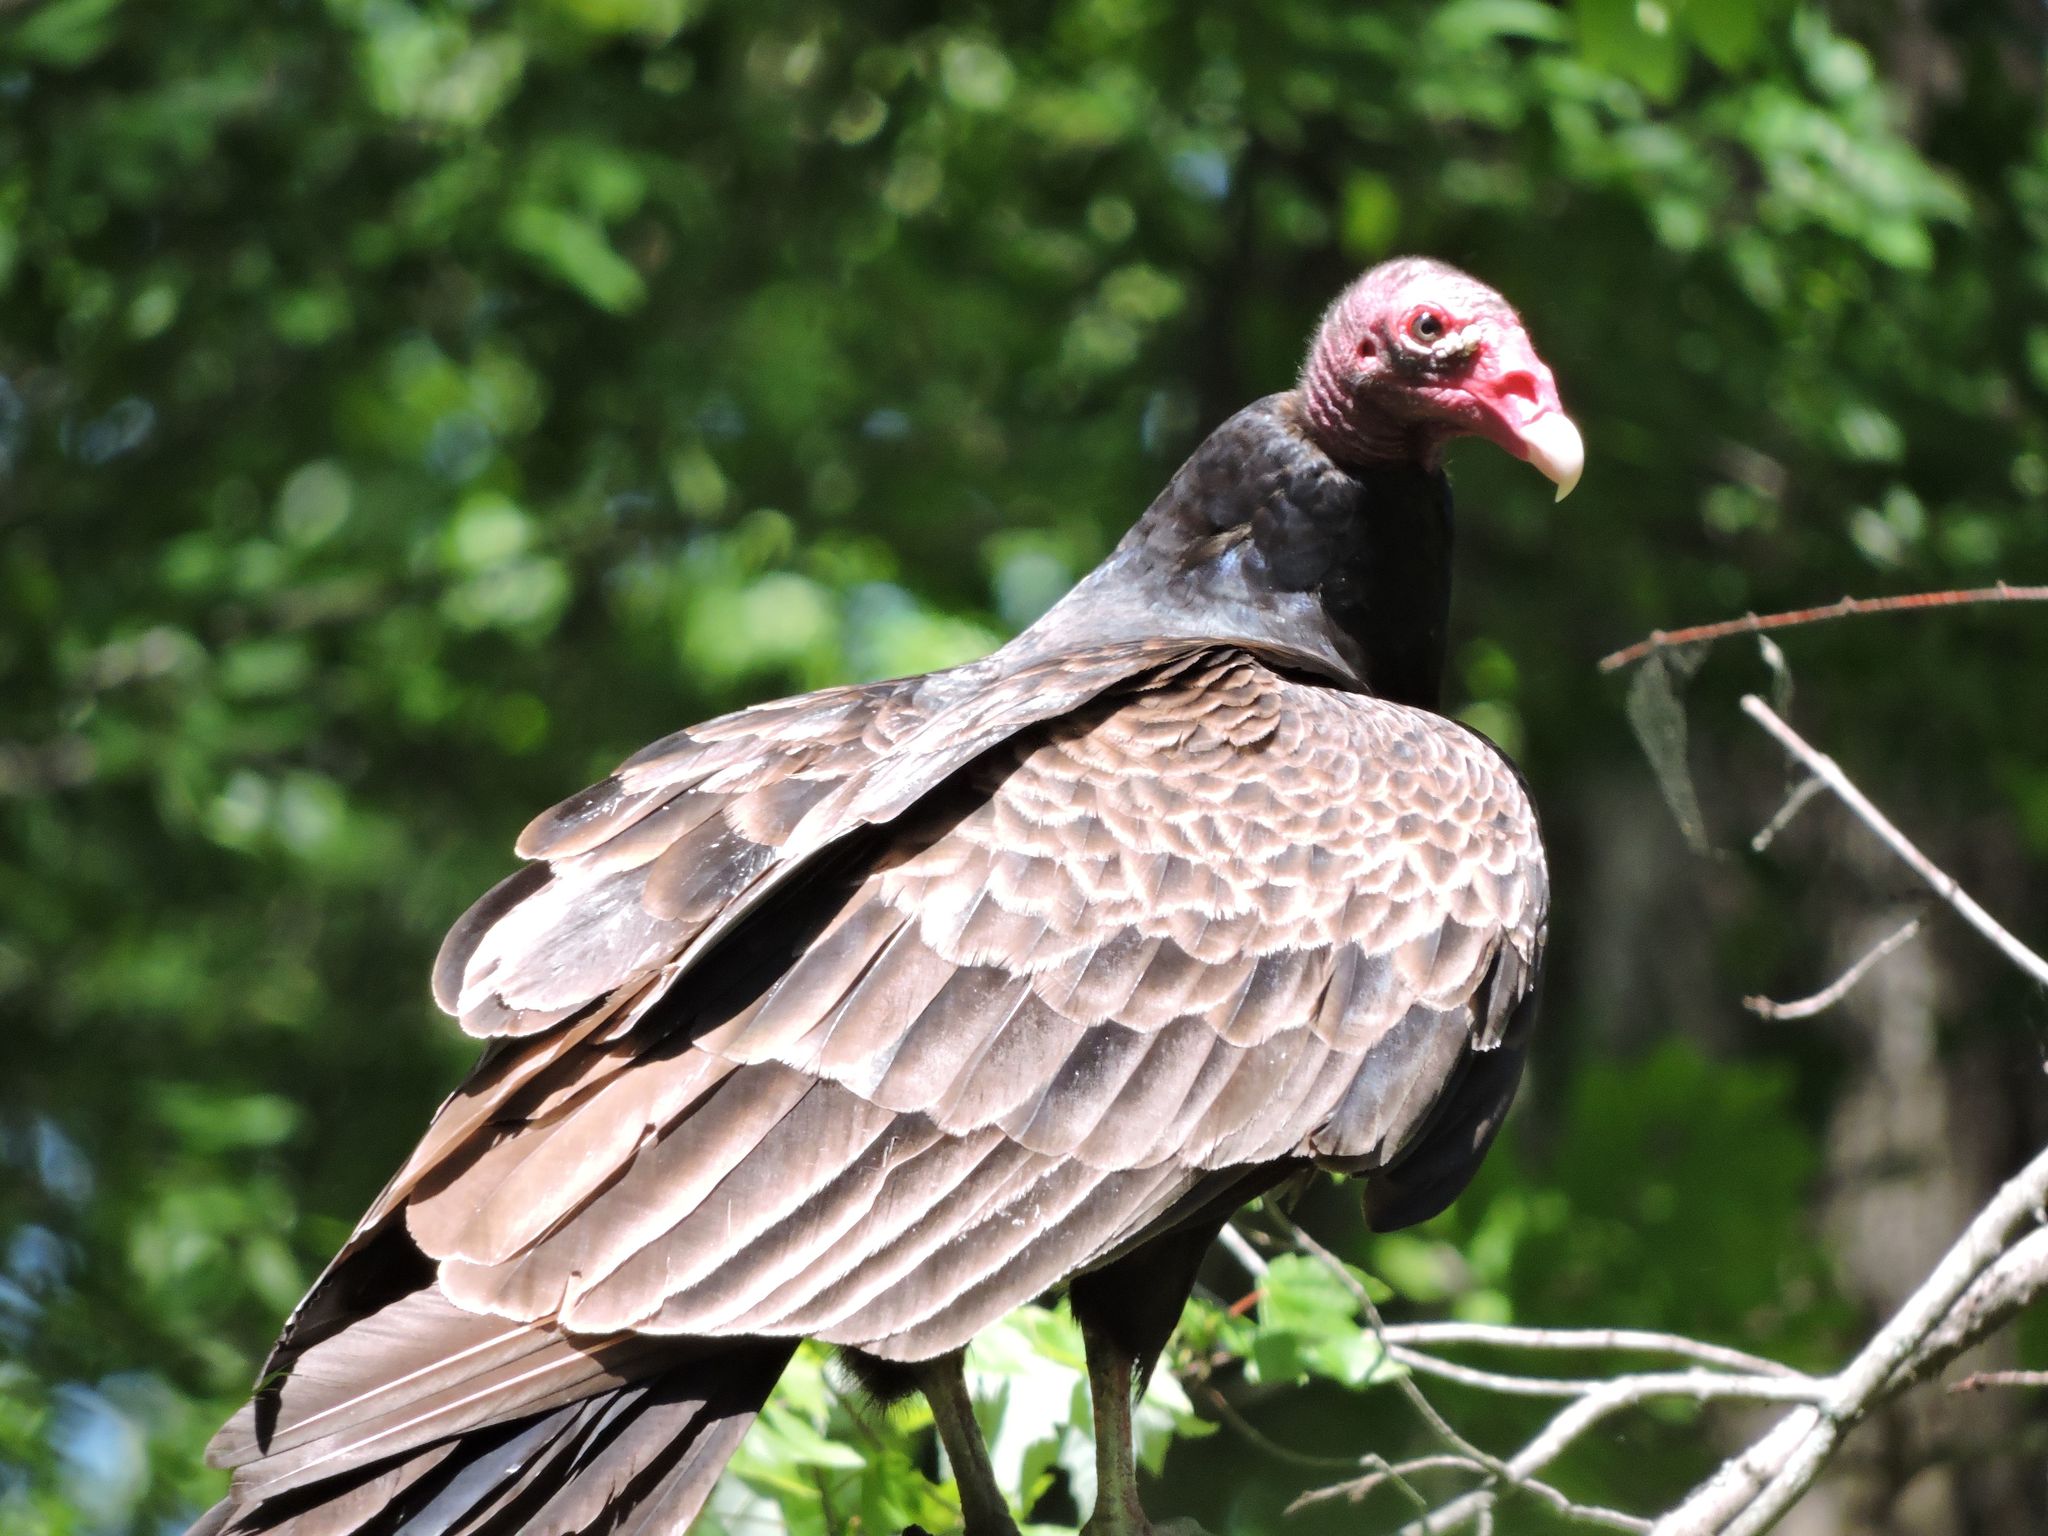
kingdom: Animalia
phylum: Chordata
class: Aves
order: Accipitriformes
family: Cathartidae
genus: Cathartes
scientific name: Cathartes aura
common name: Turkey vulture
